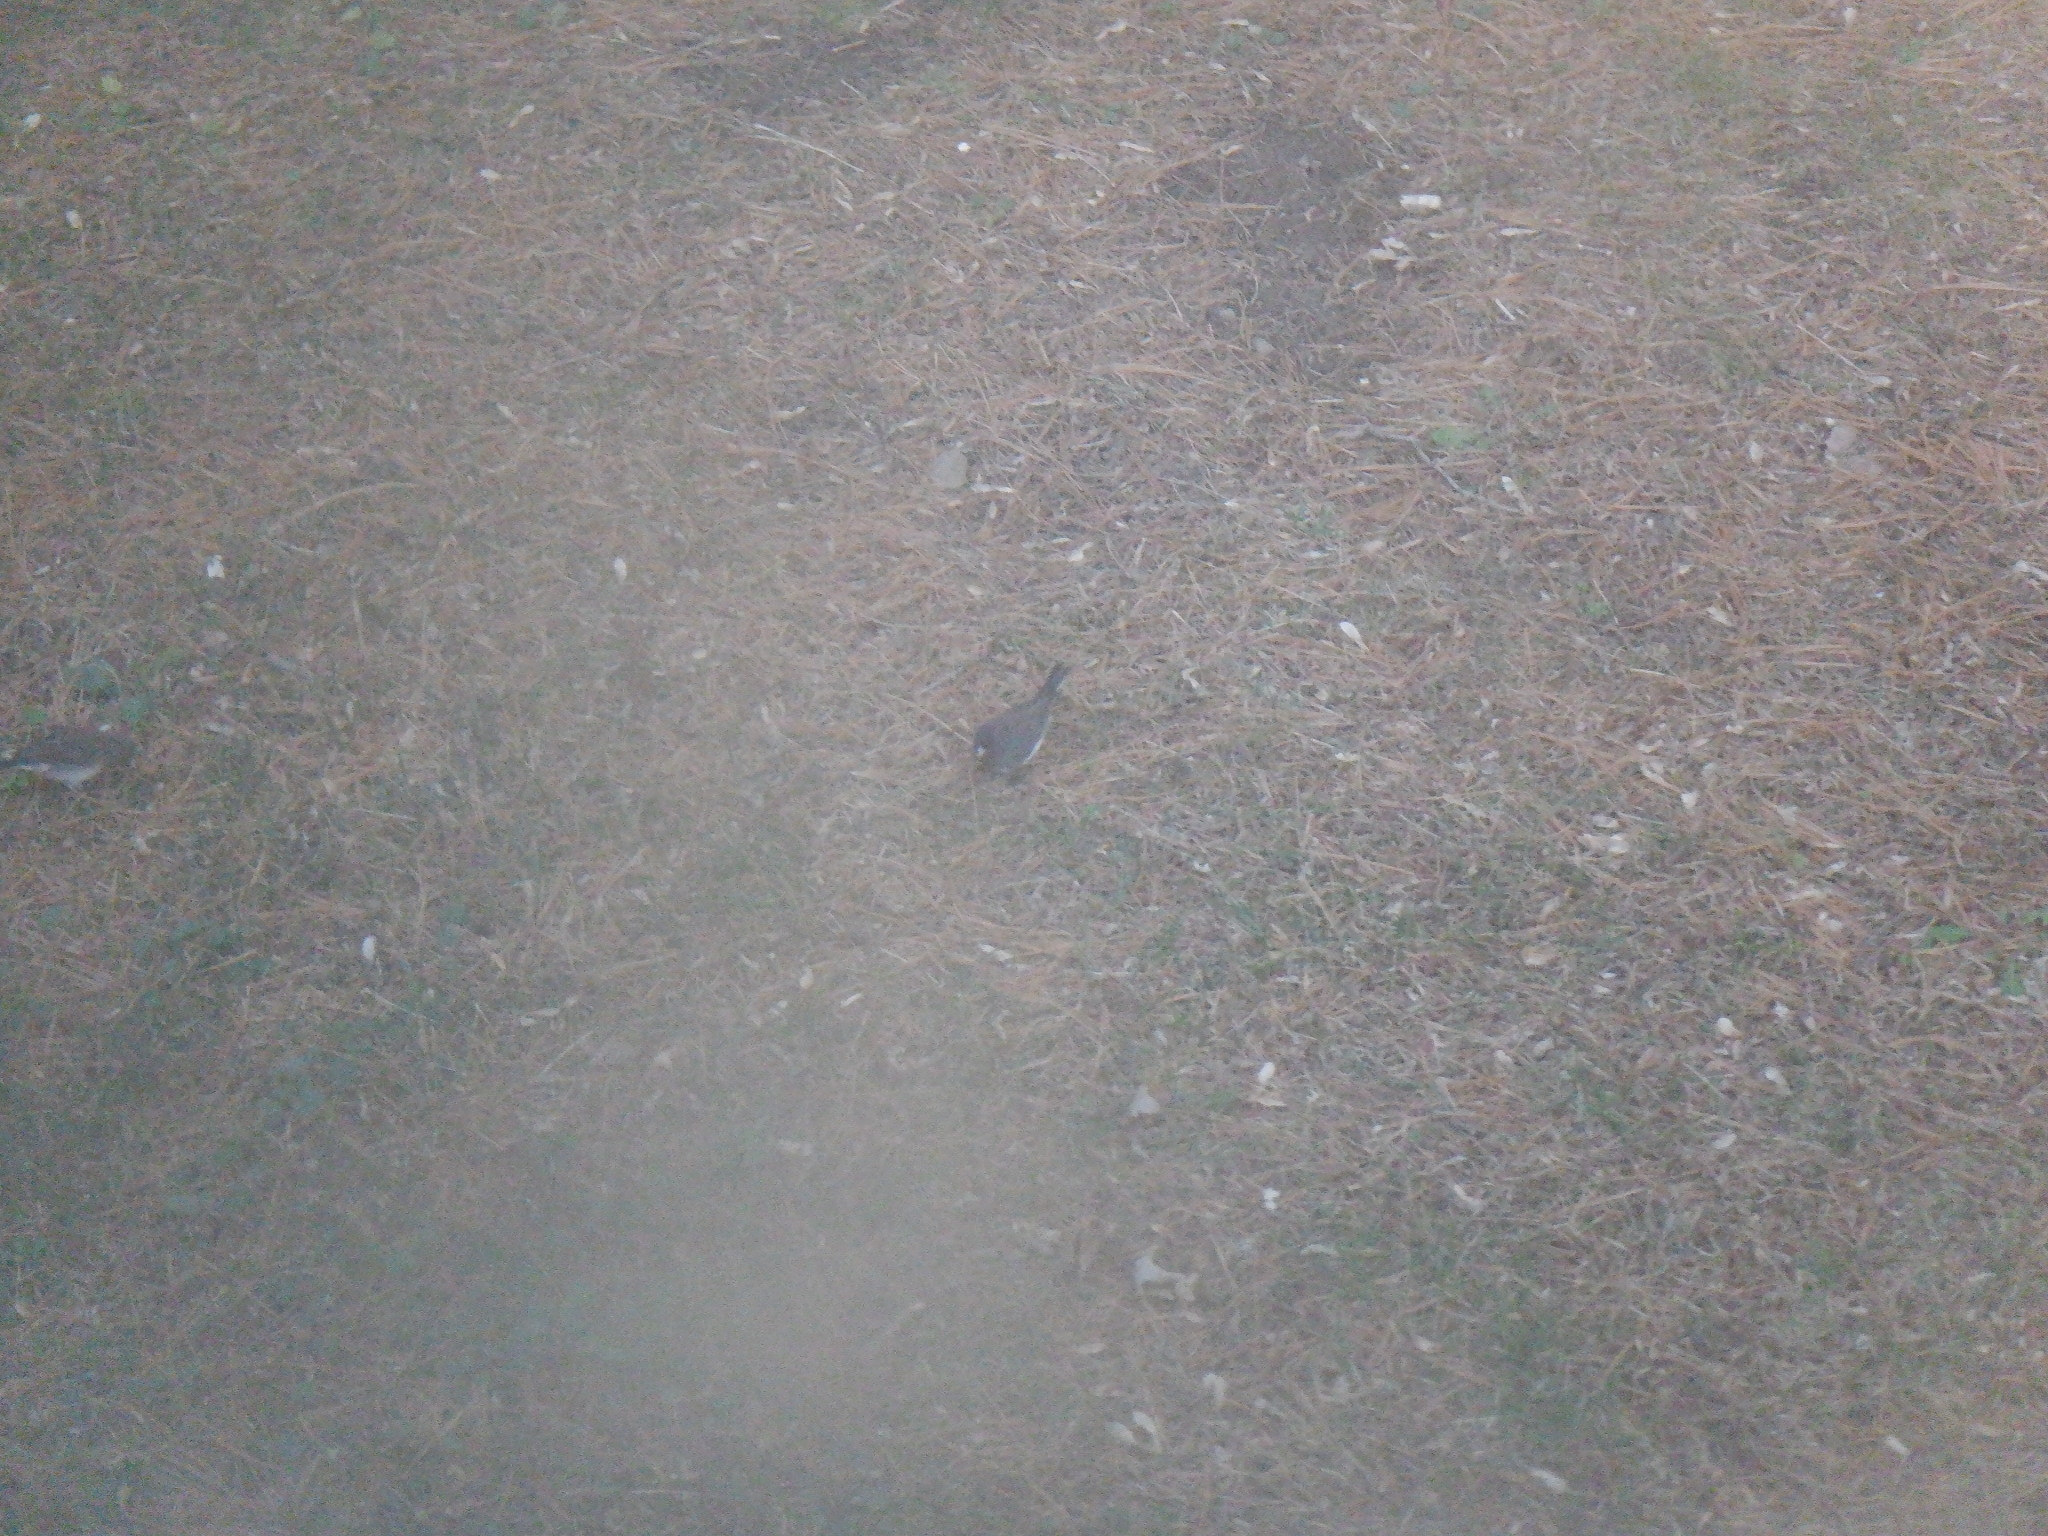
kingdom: Animalia
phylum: Chordata
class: Aves
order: Passeriformes
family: Passerellidae
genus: Junco
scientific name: Junco hyemalis
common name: Dark-eyed junco
